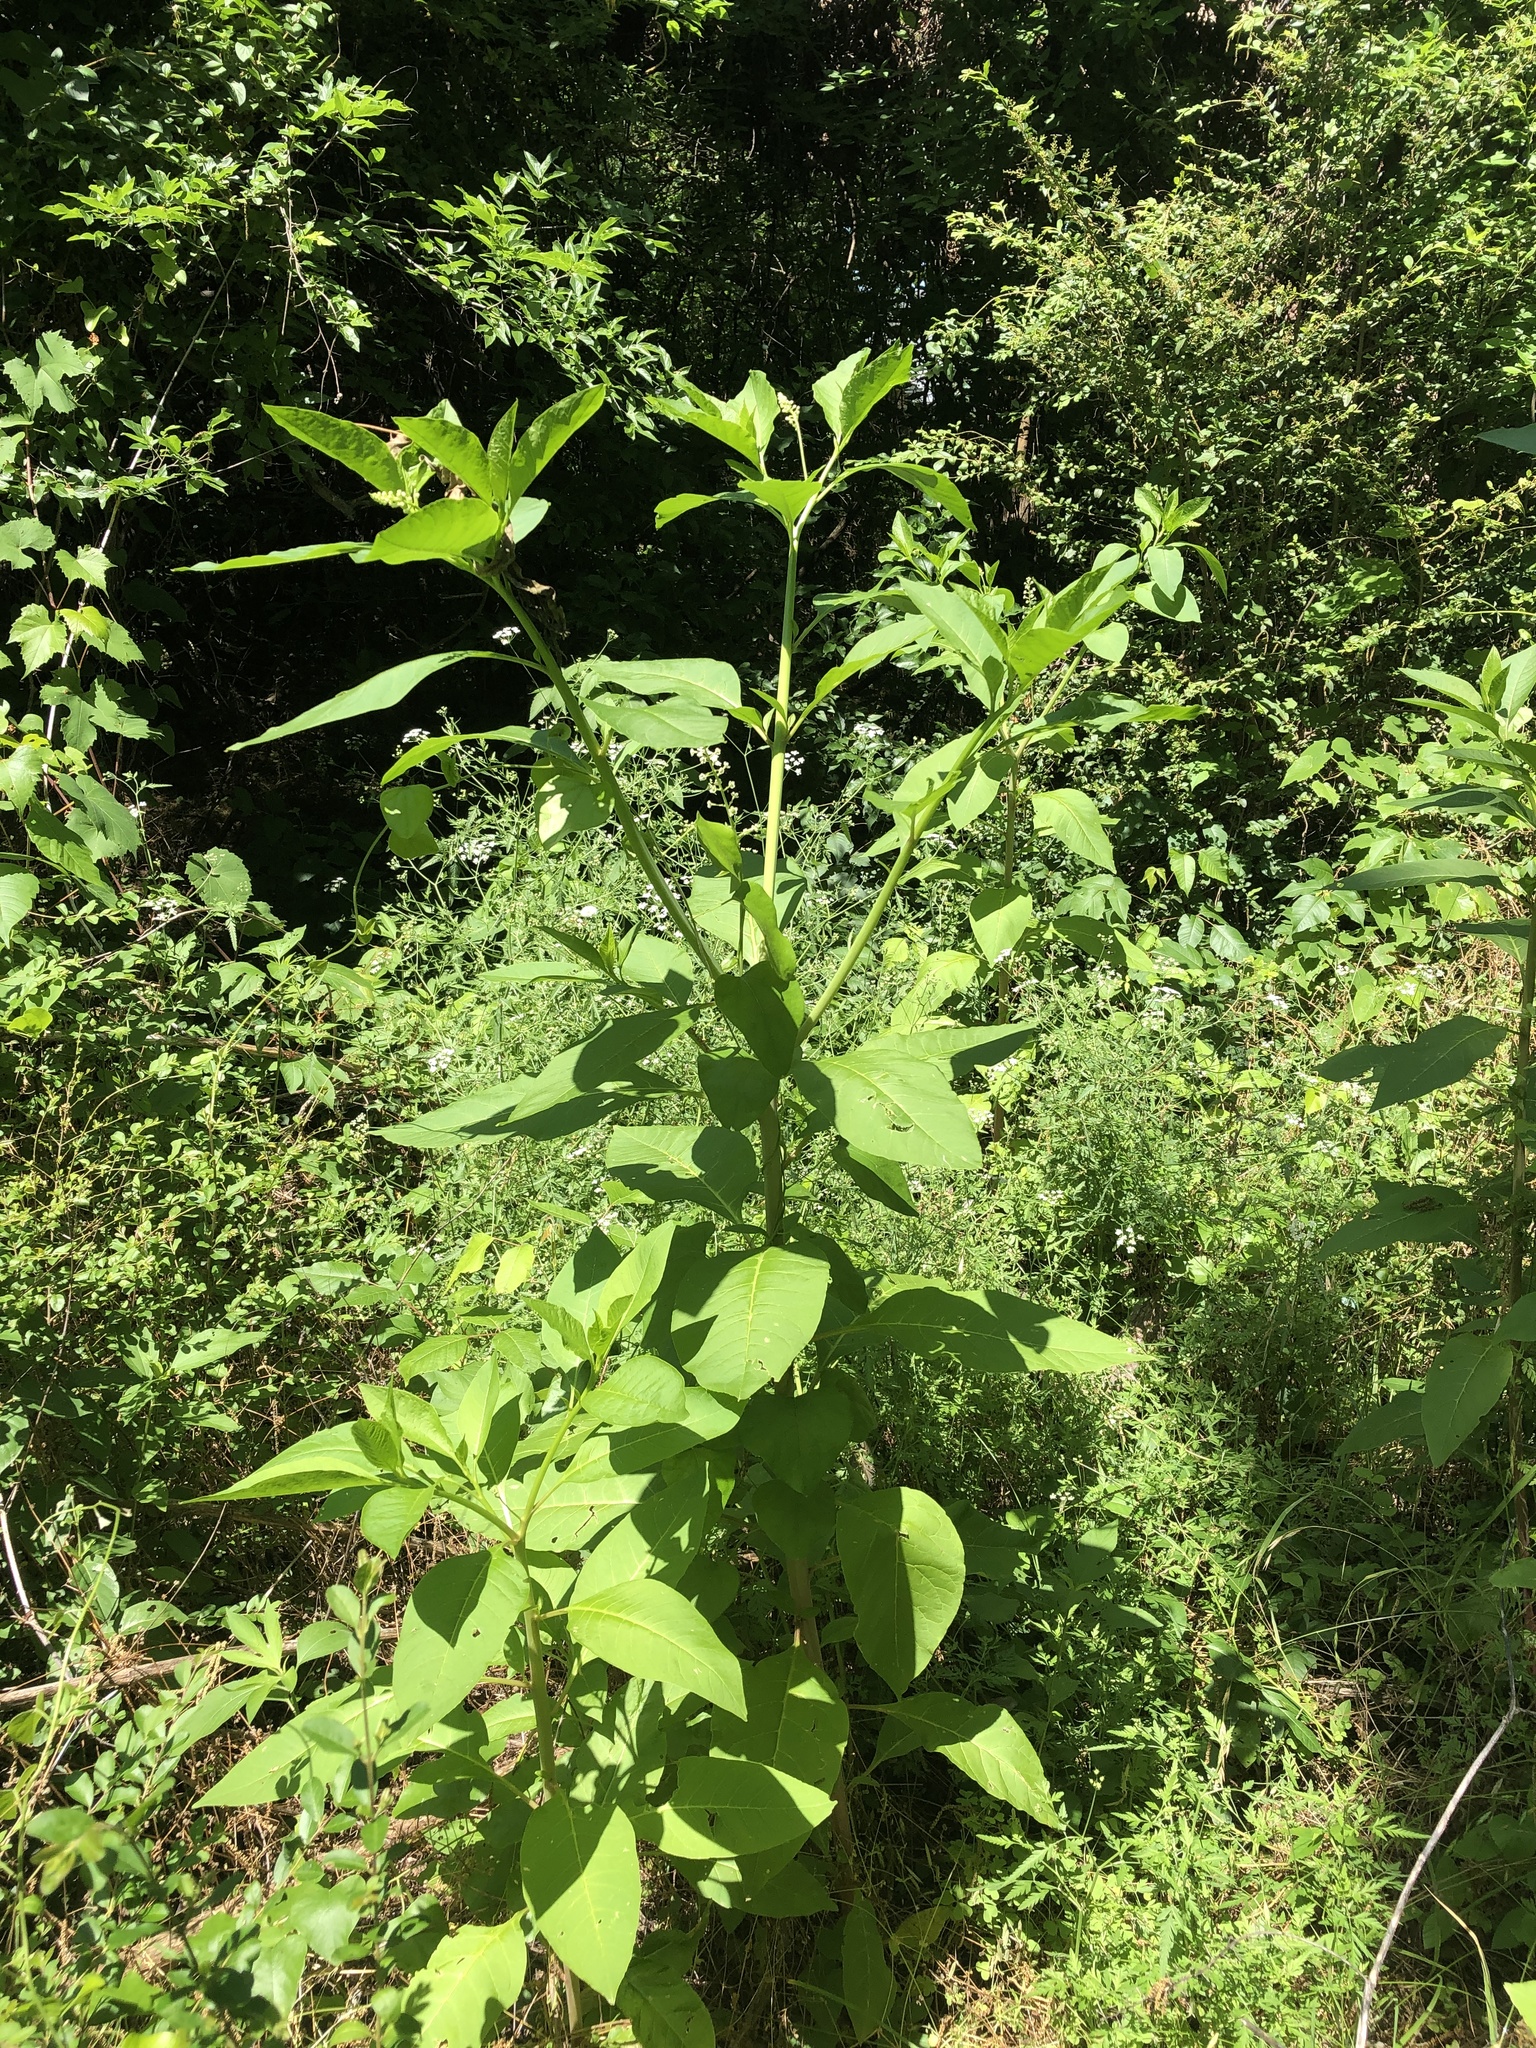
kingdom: Plantae
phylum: Tracheophyta
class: Magnoliopsida
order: Caryophyllales
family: Phytolaccaceae
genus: Phytolacca
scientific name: Phytolacca americana
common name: American pokeweed
